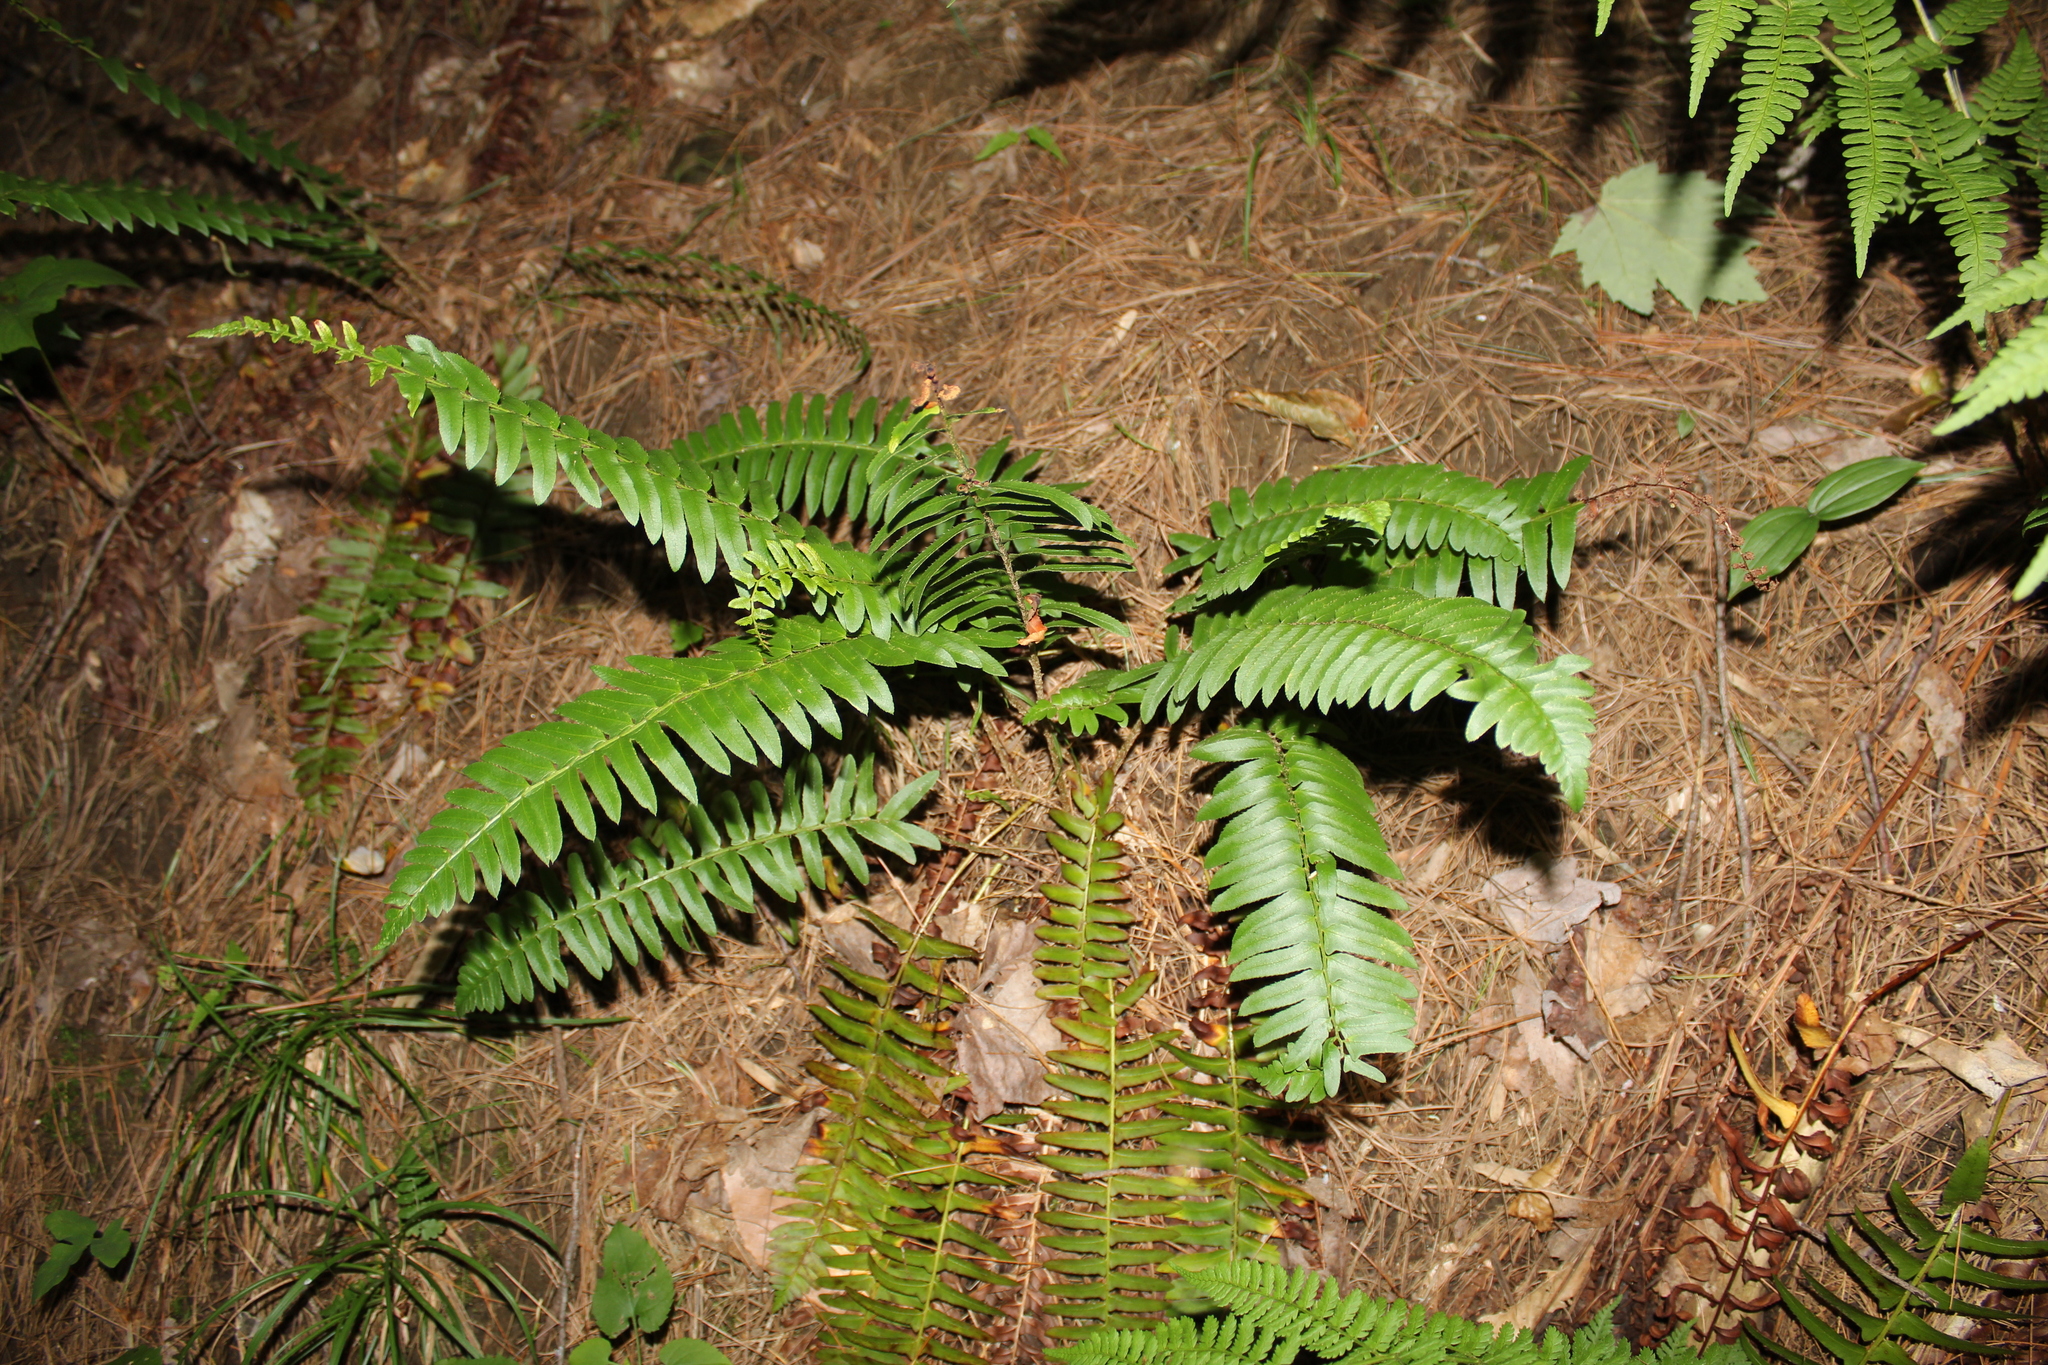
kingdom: Plantae
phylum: Tracheophyta
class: Polypodiopsida
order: Polypodiales
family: Dryopteridaceae
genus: Polystichum
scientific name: Polystichum acrostichoides
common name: Christmas fern
